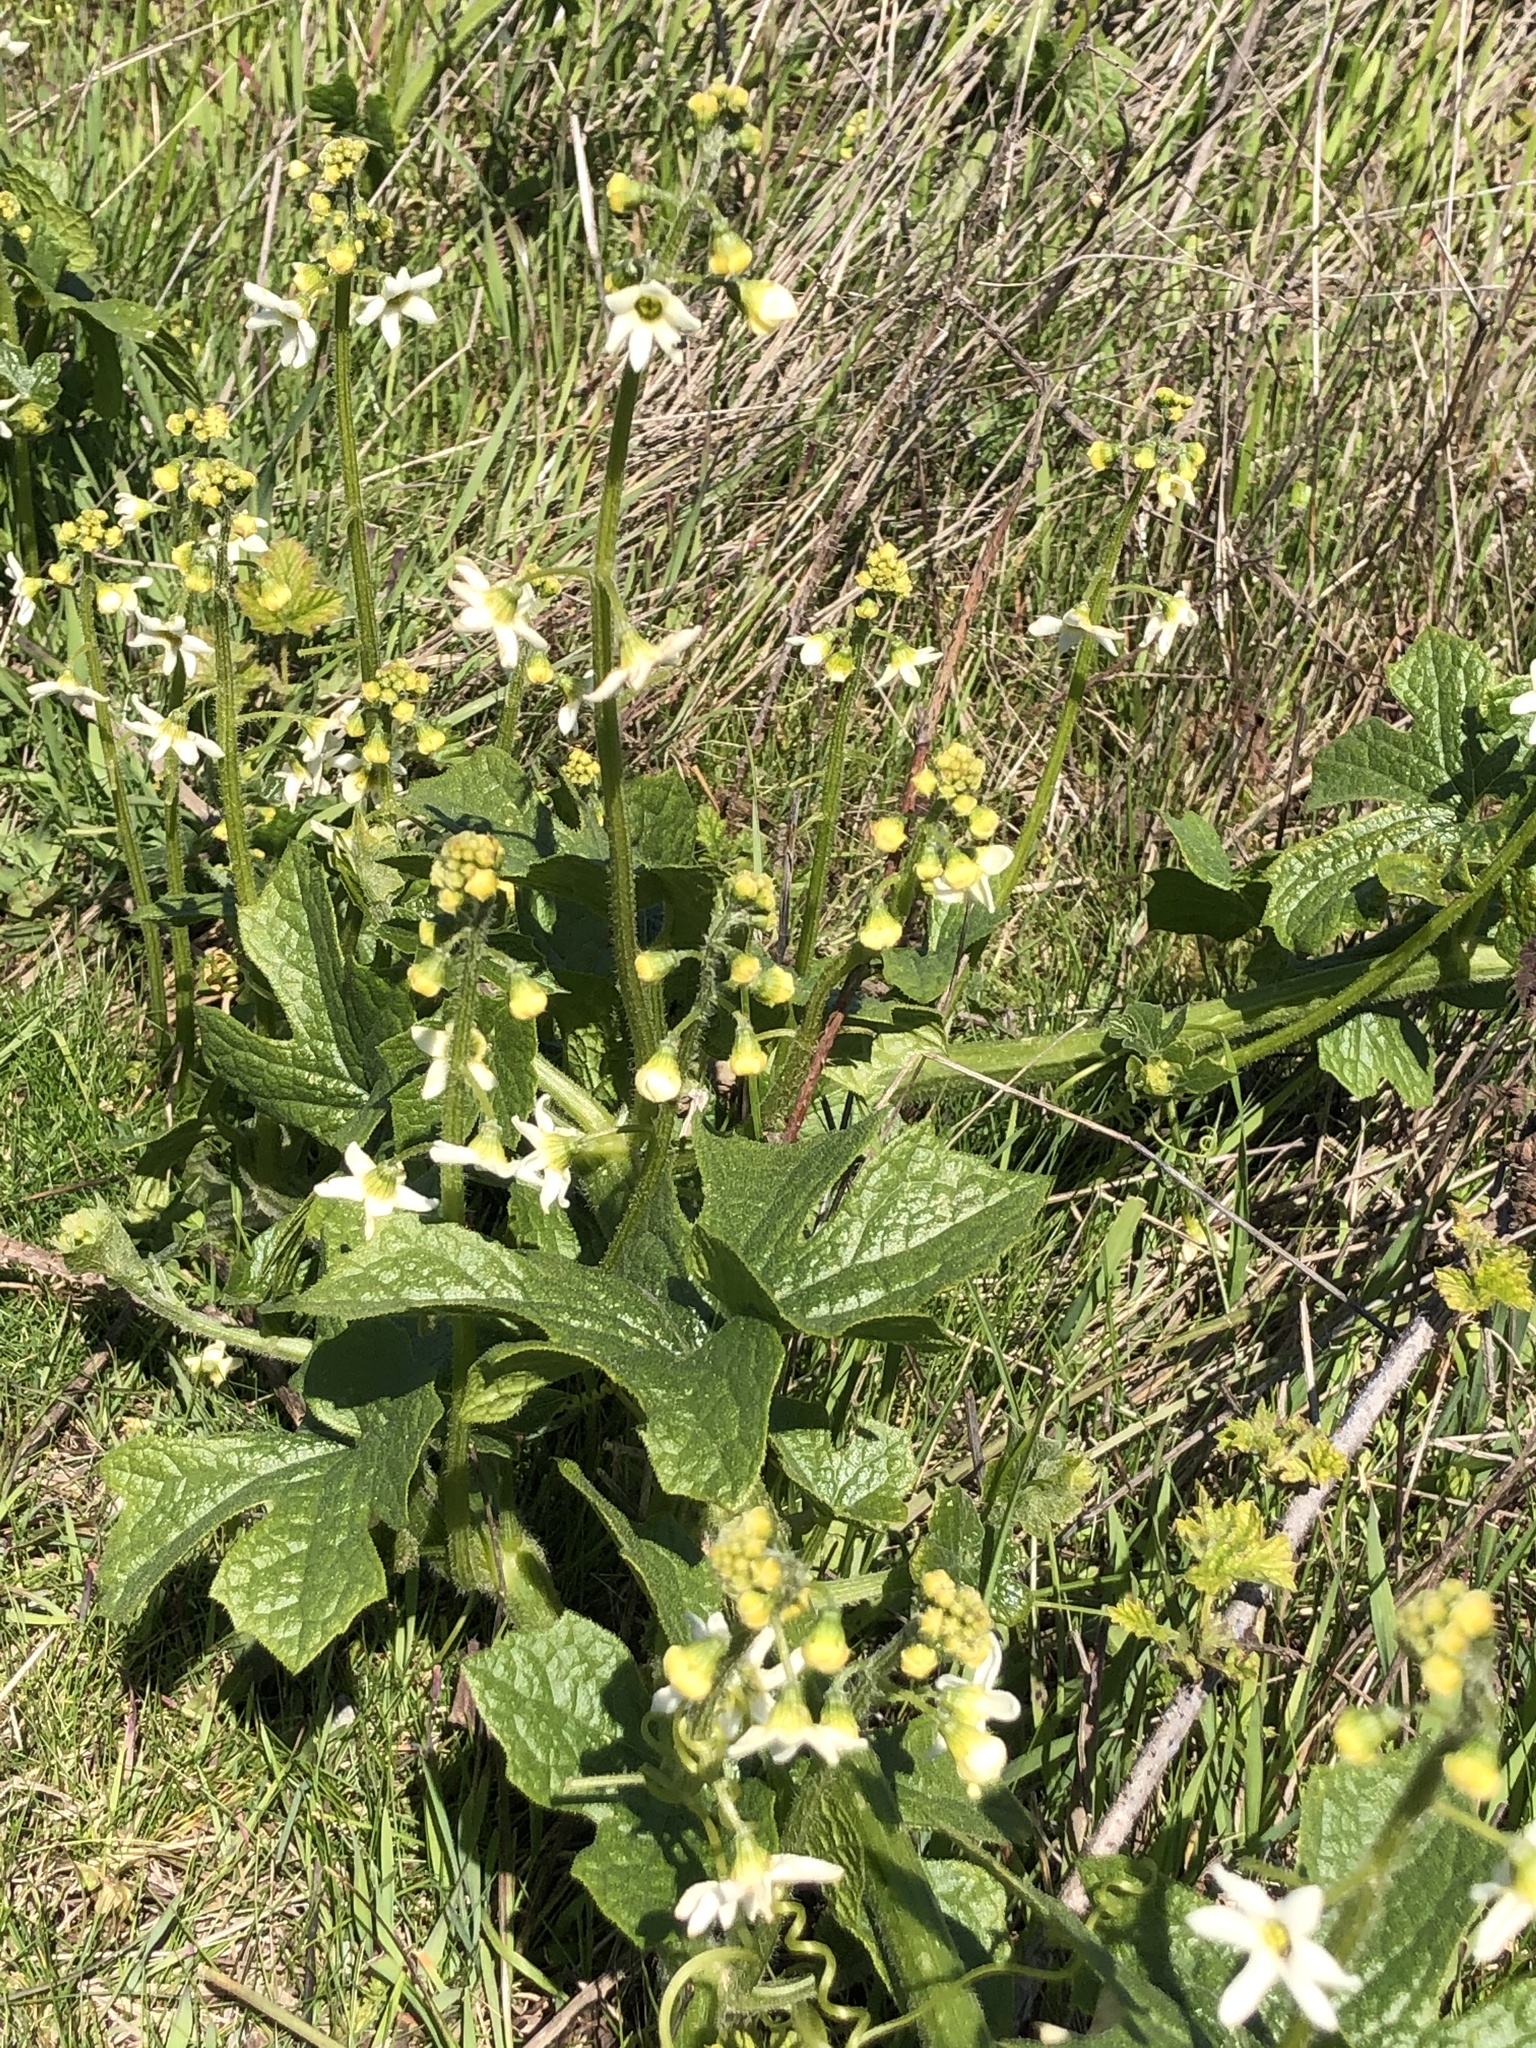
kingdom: Plantae
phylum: Tracheophyta
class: Magnoliopsida
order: Cucurbitales
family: Cucurbitaceae
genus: Marah
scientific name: Marah oregana
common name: Coastal manroot
